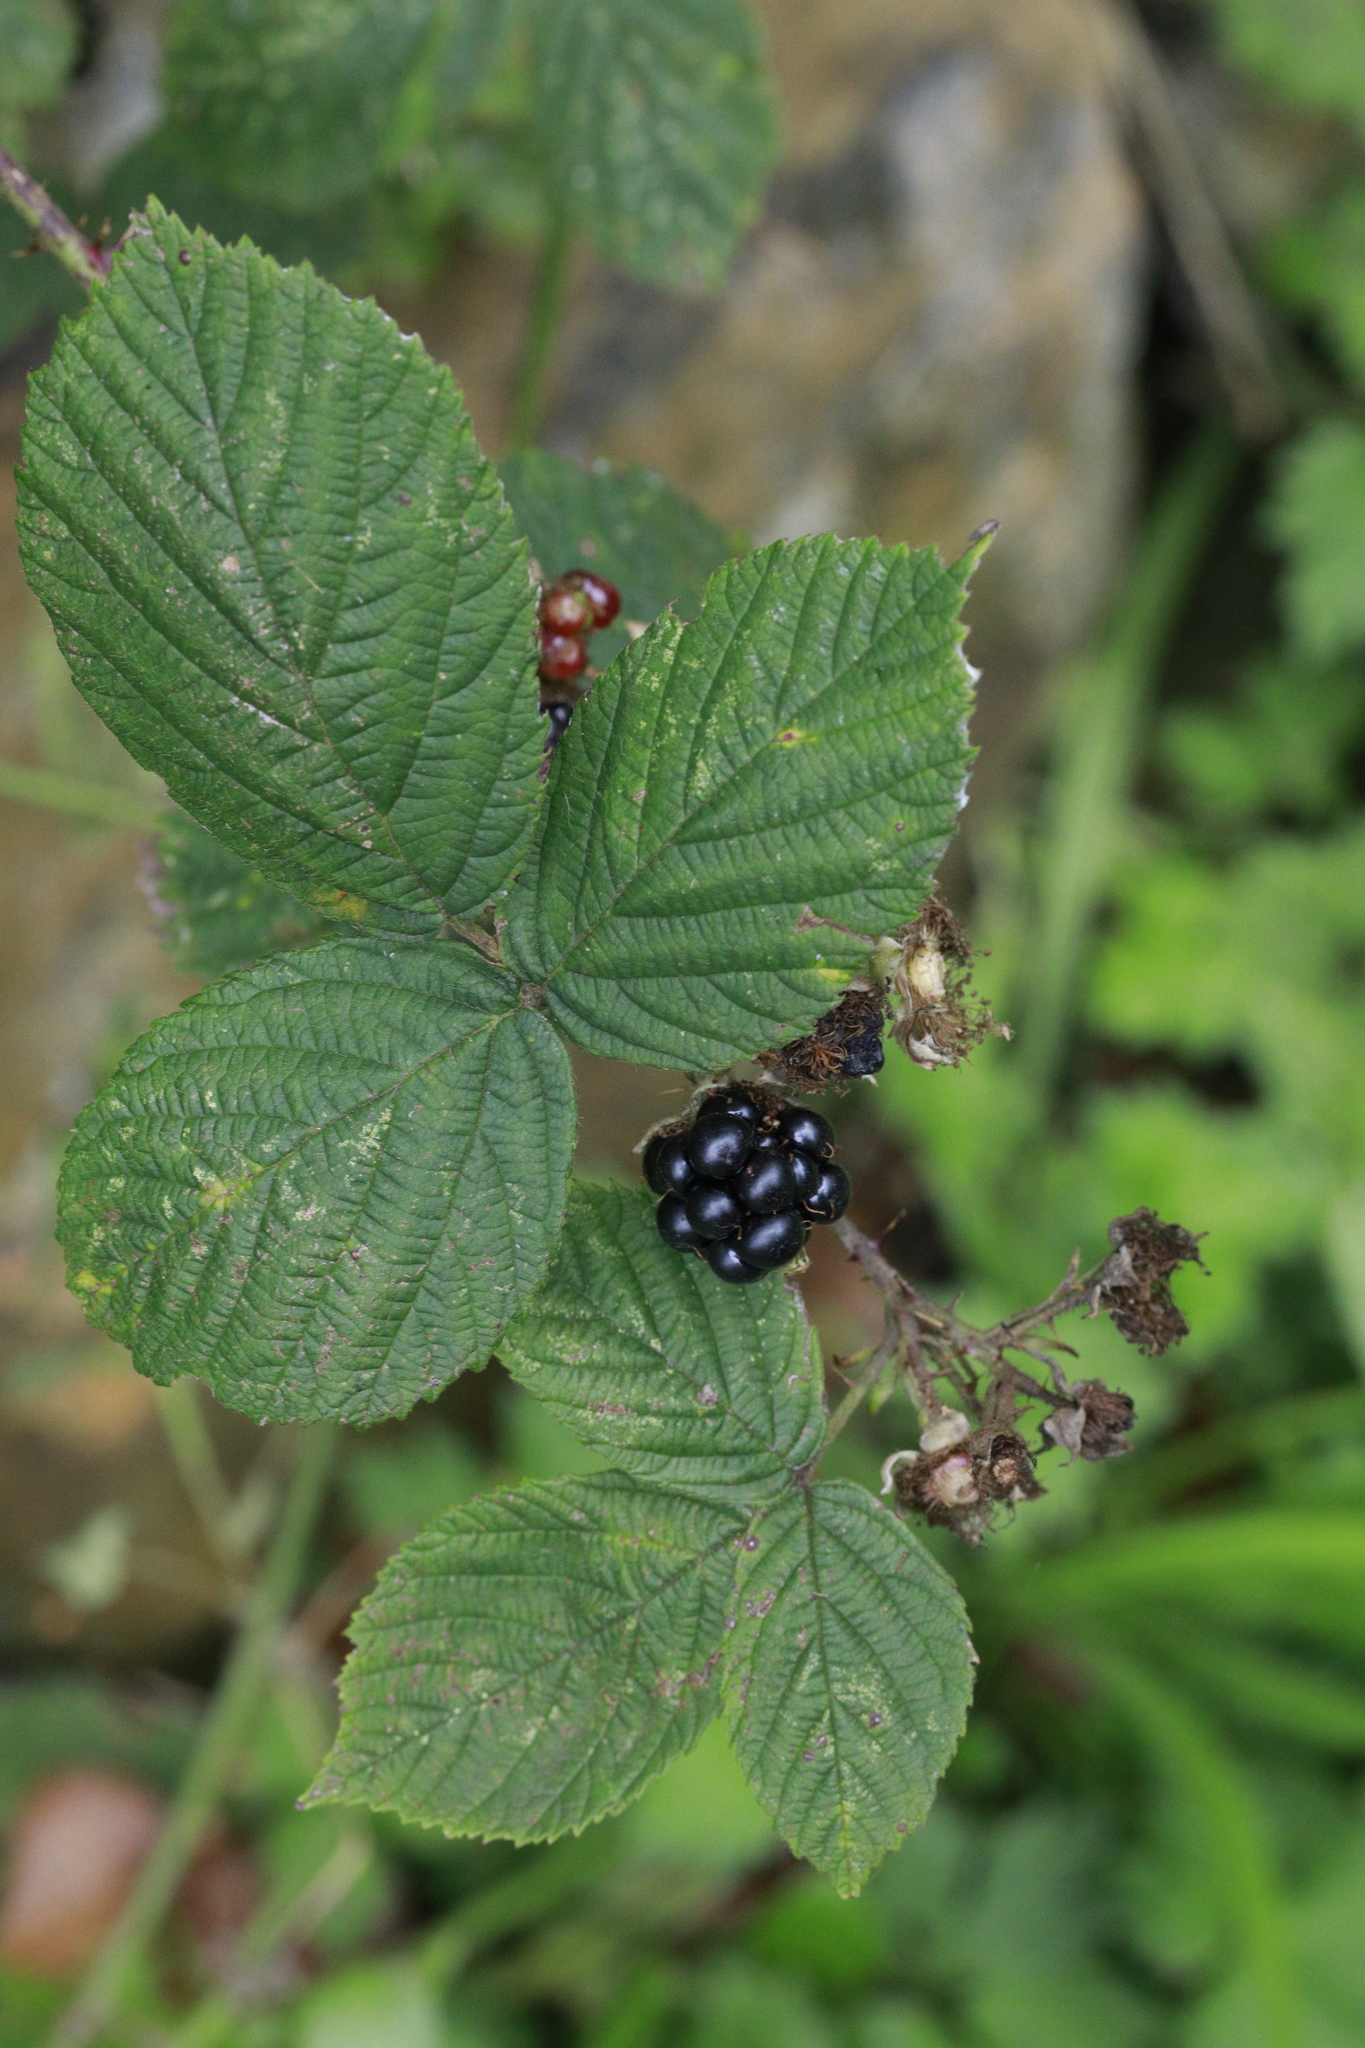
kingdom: Plantae
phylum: Tracheophyta
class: Magnoliopsida
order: Rosales
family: Rosaceae
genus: Rubus
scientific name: Rubus horrefactus
